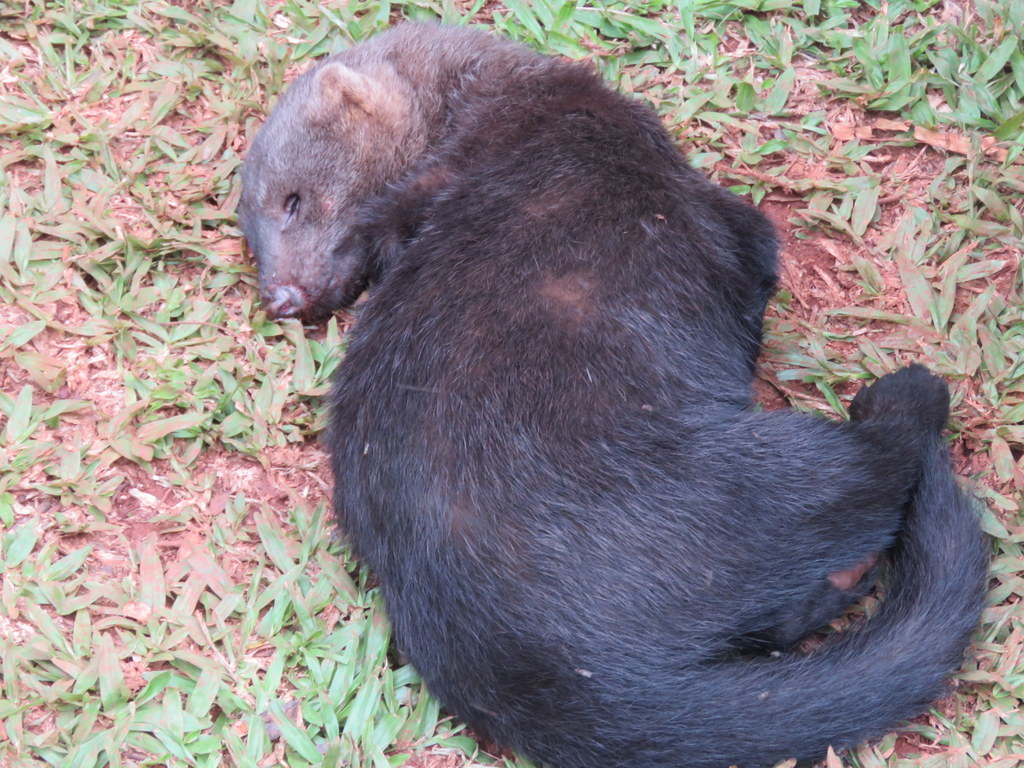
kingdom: Animalia
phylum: Chordata
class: Mammalia
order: Carnivora
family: Mustelidae
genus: Eira
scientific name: Eira barbara
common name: Tayra
